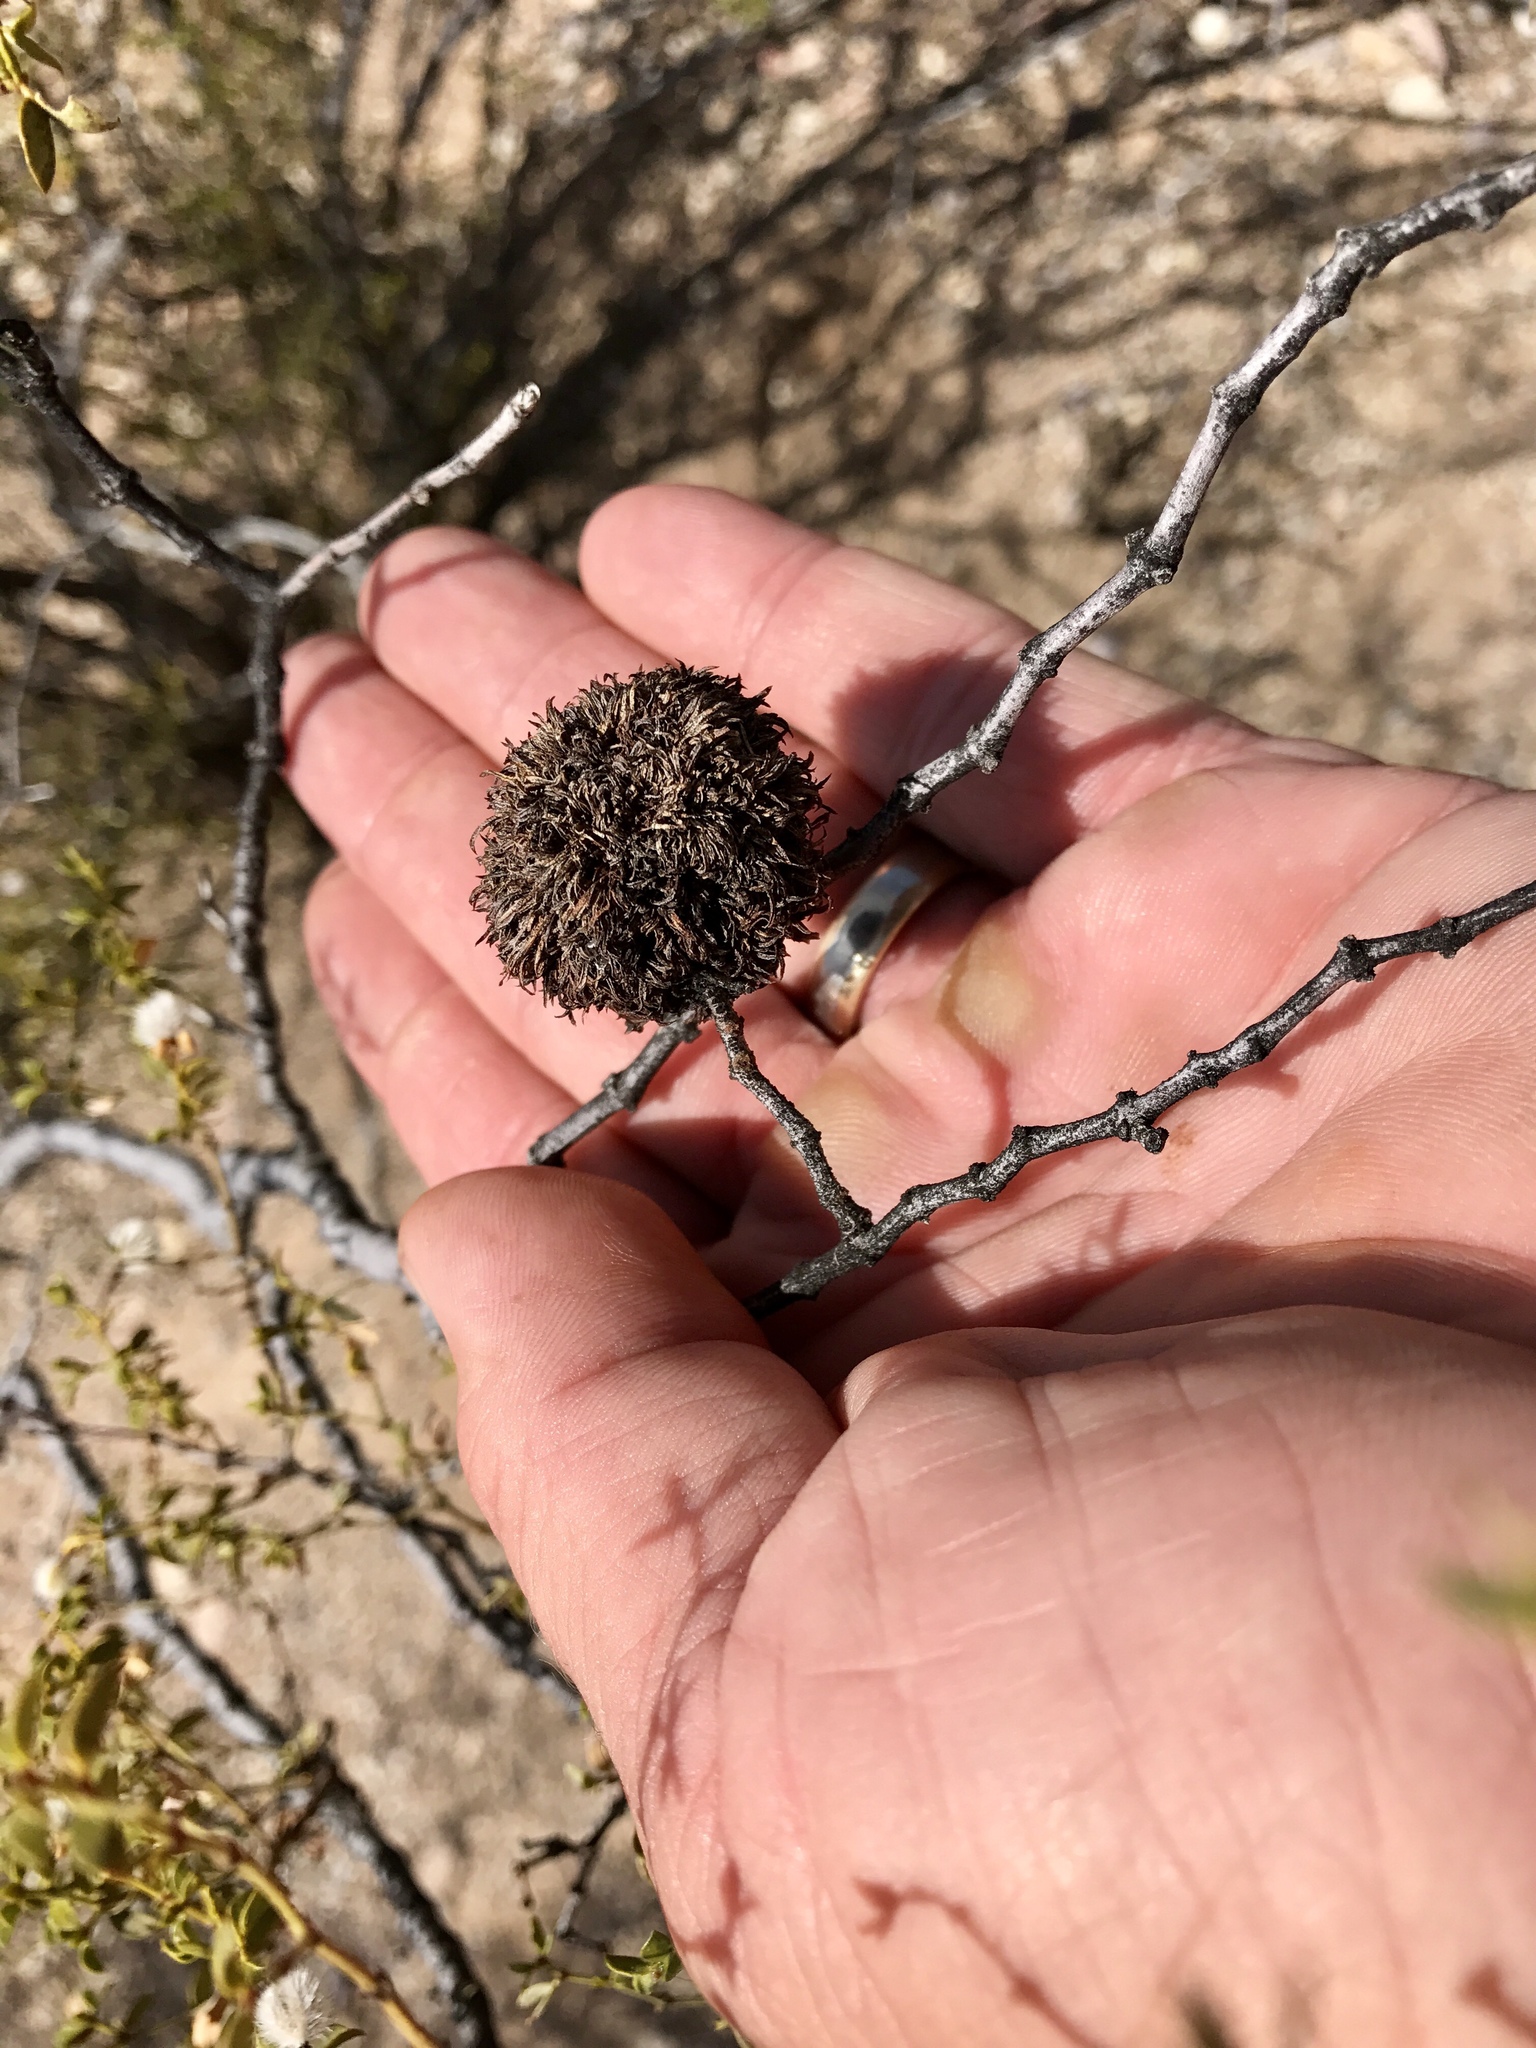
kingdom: Animalia
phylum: Arthropoda
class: Insecta
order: Diptera
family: Cecidomyiidae
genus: Asphondylia
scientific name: Asphondylia auripila
